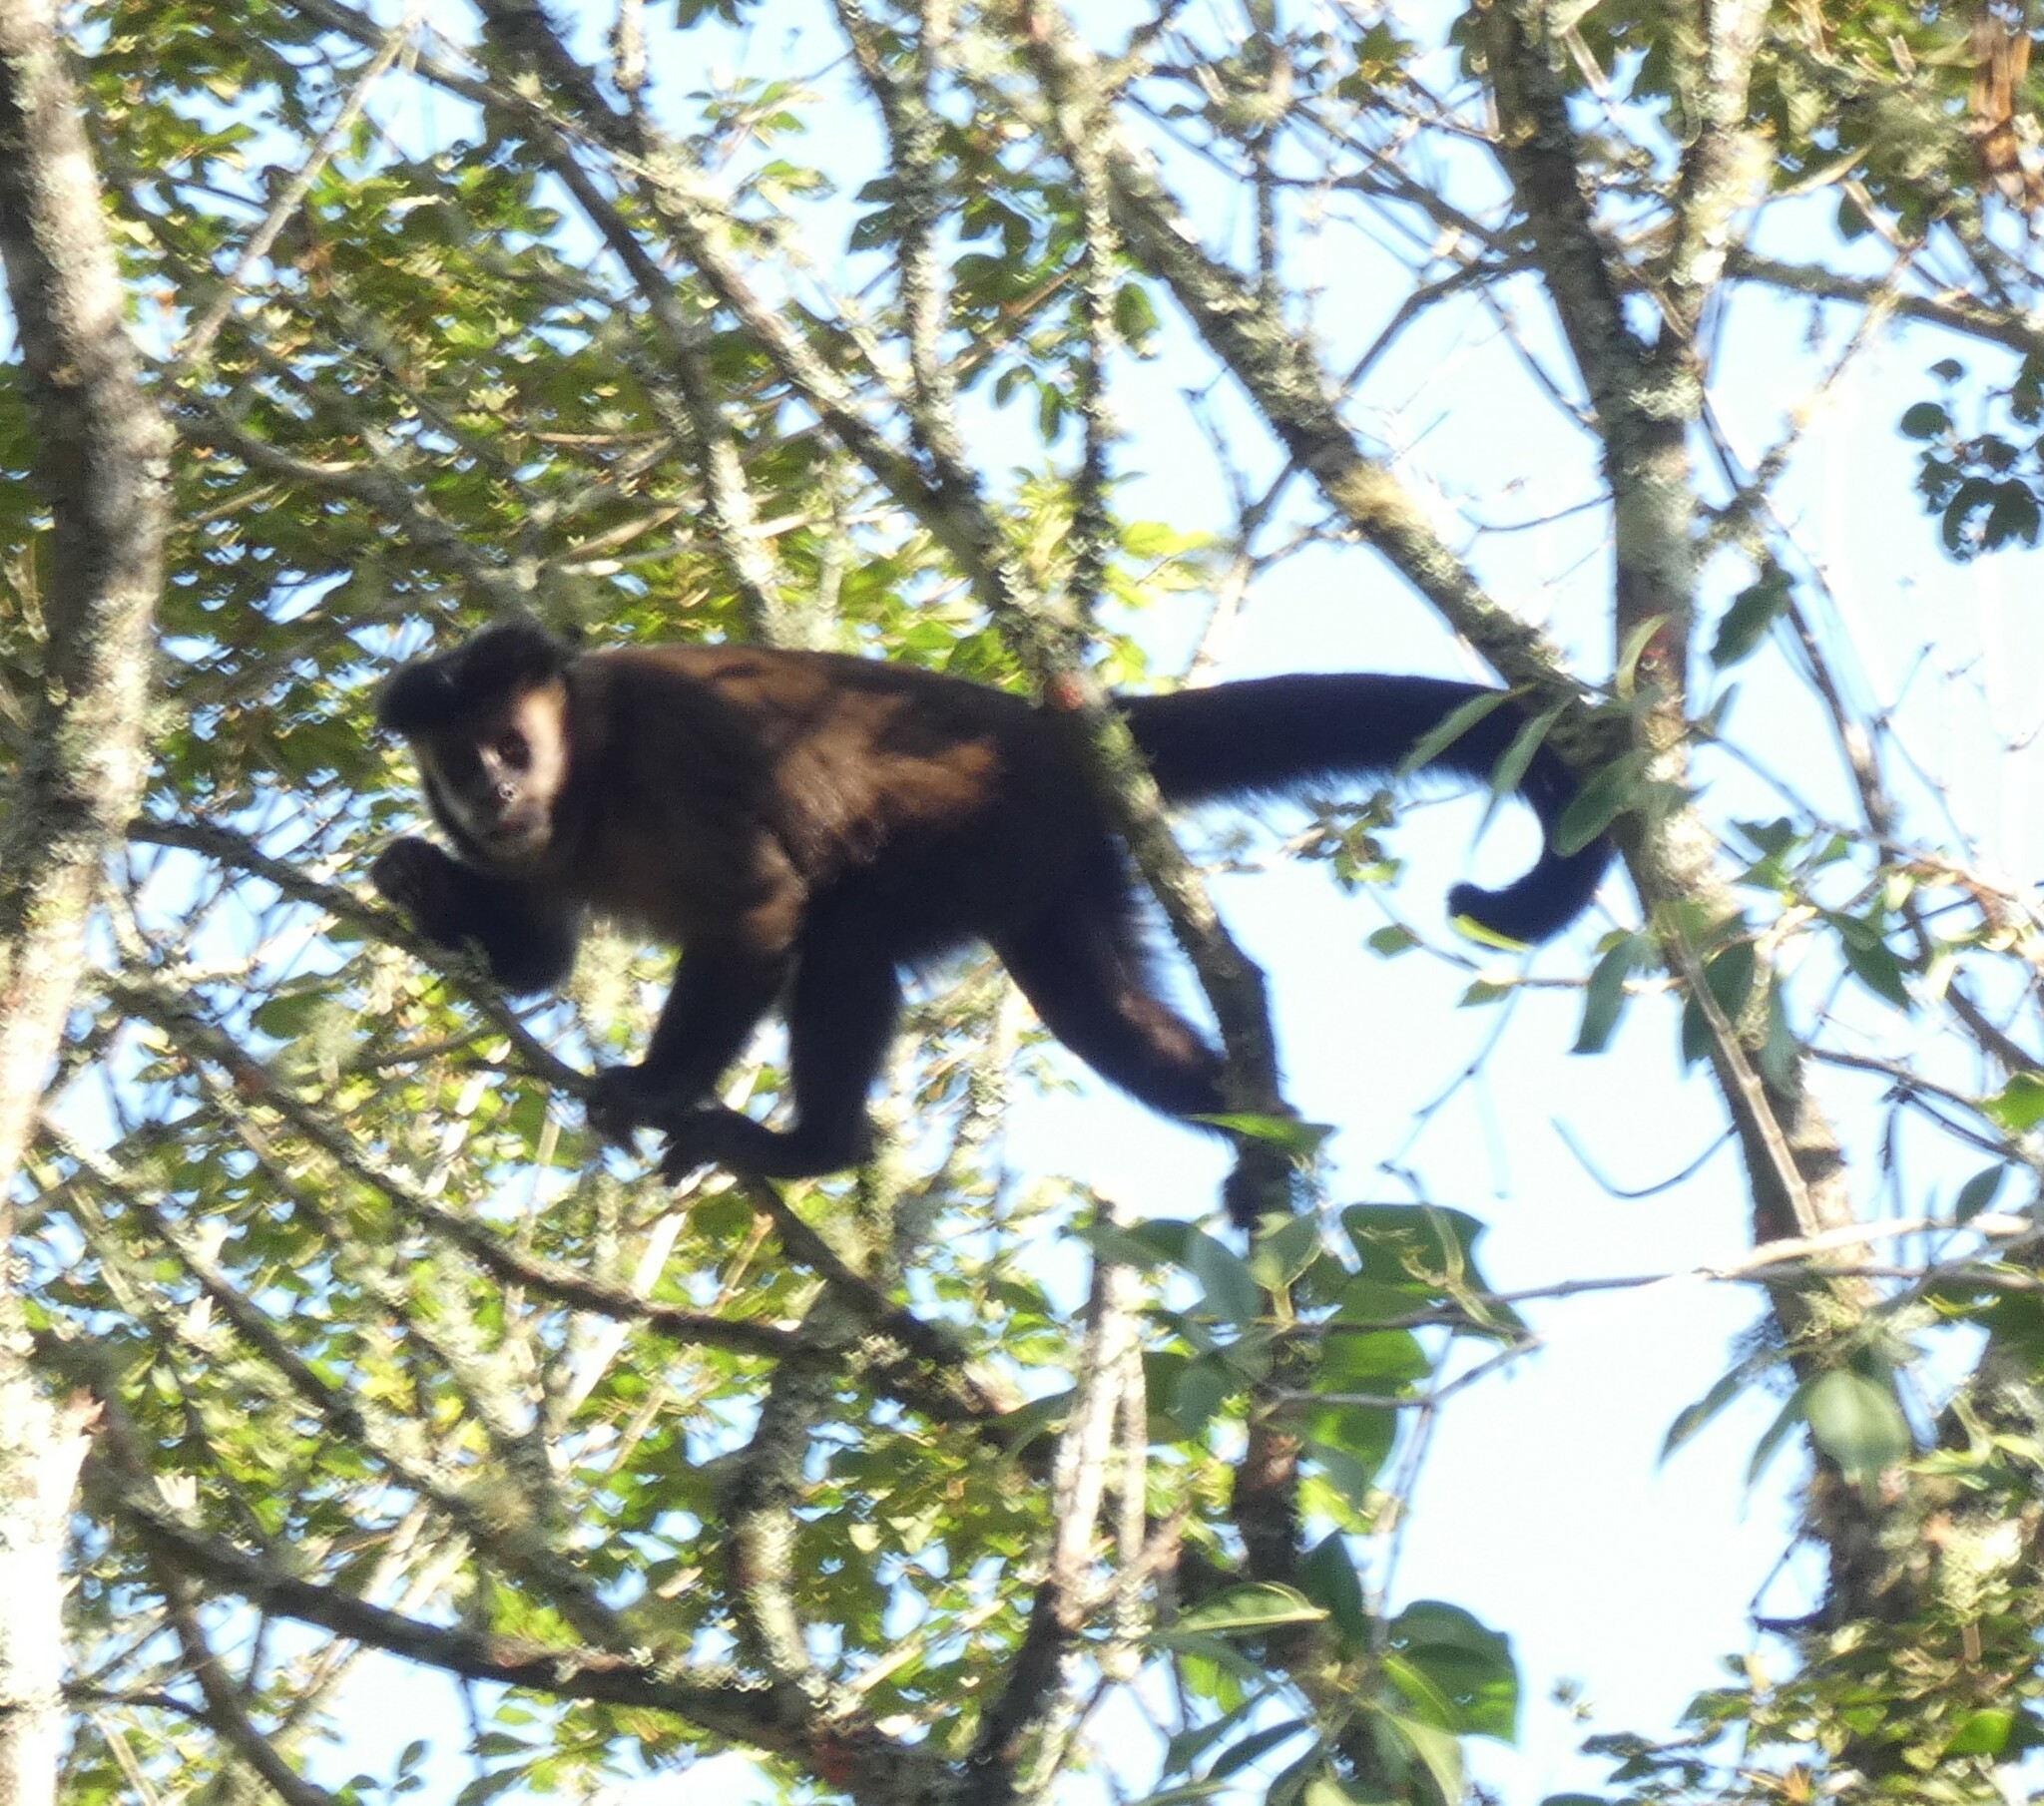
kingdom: Animalia
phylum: Chordata
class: Mammalia
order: Primates
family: Cebidae
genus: Sapajus
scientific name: Sapajus nigritus
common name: Black capuchin
